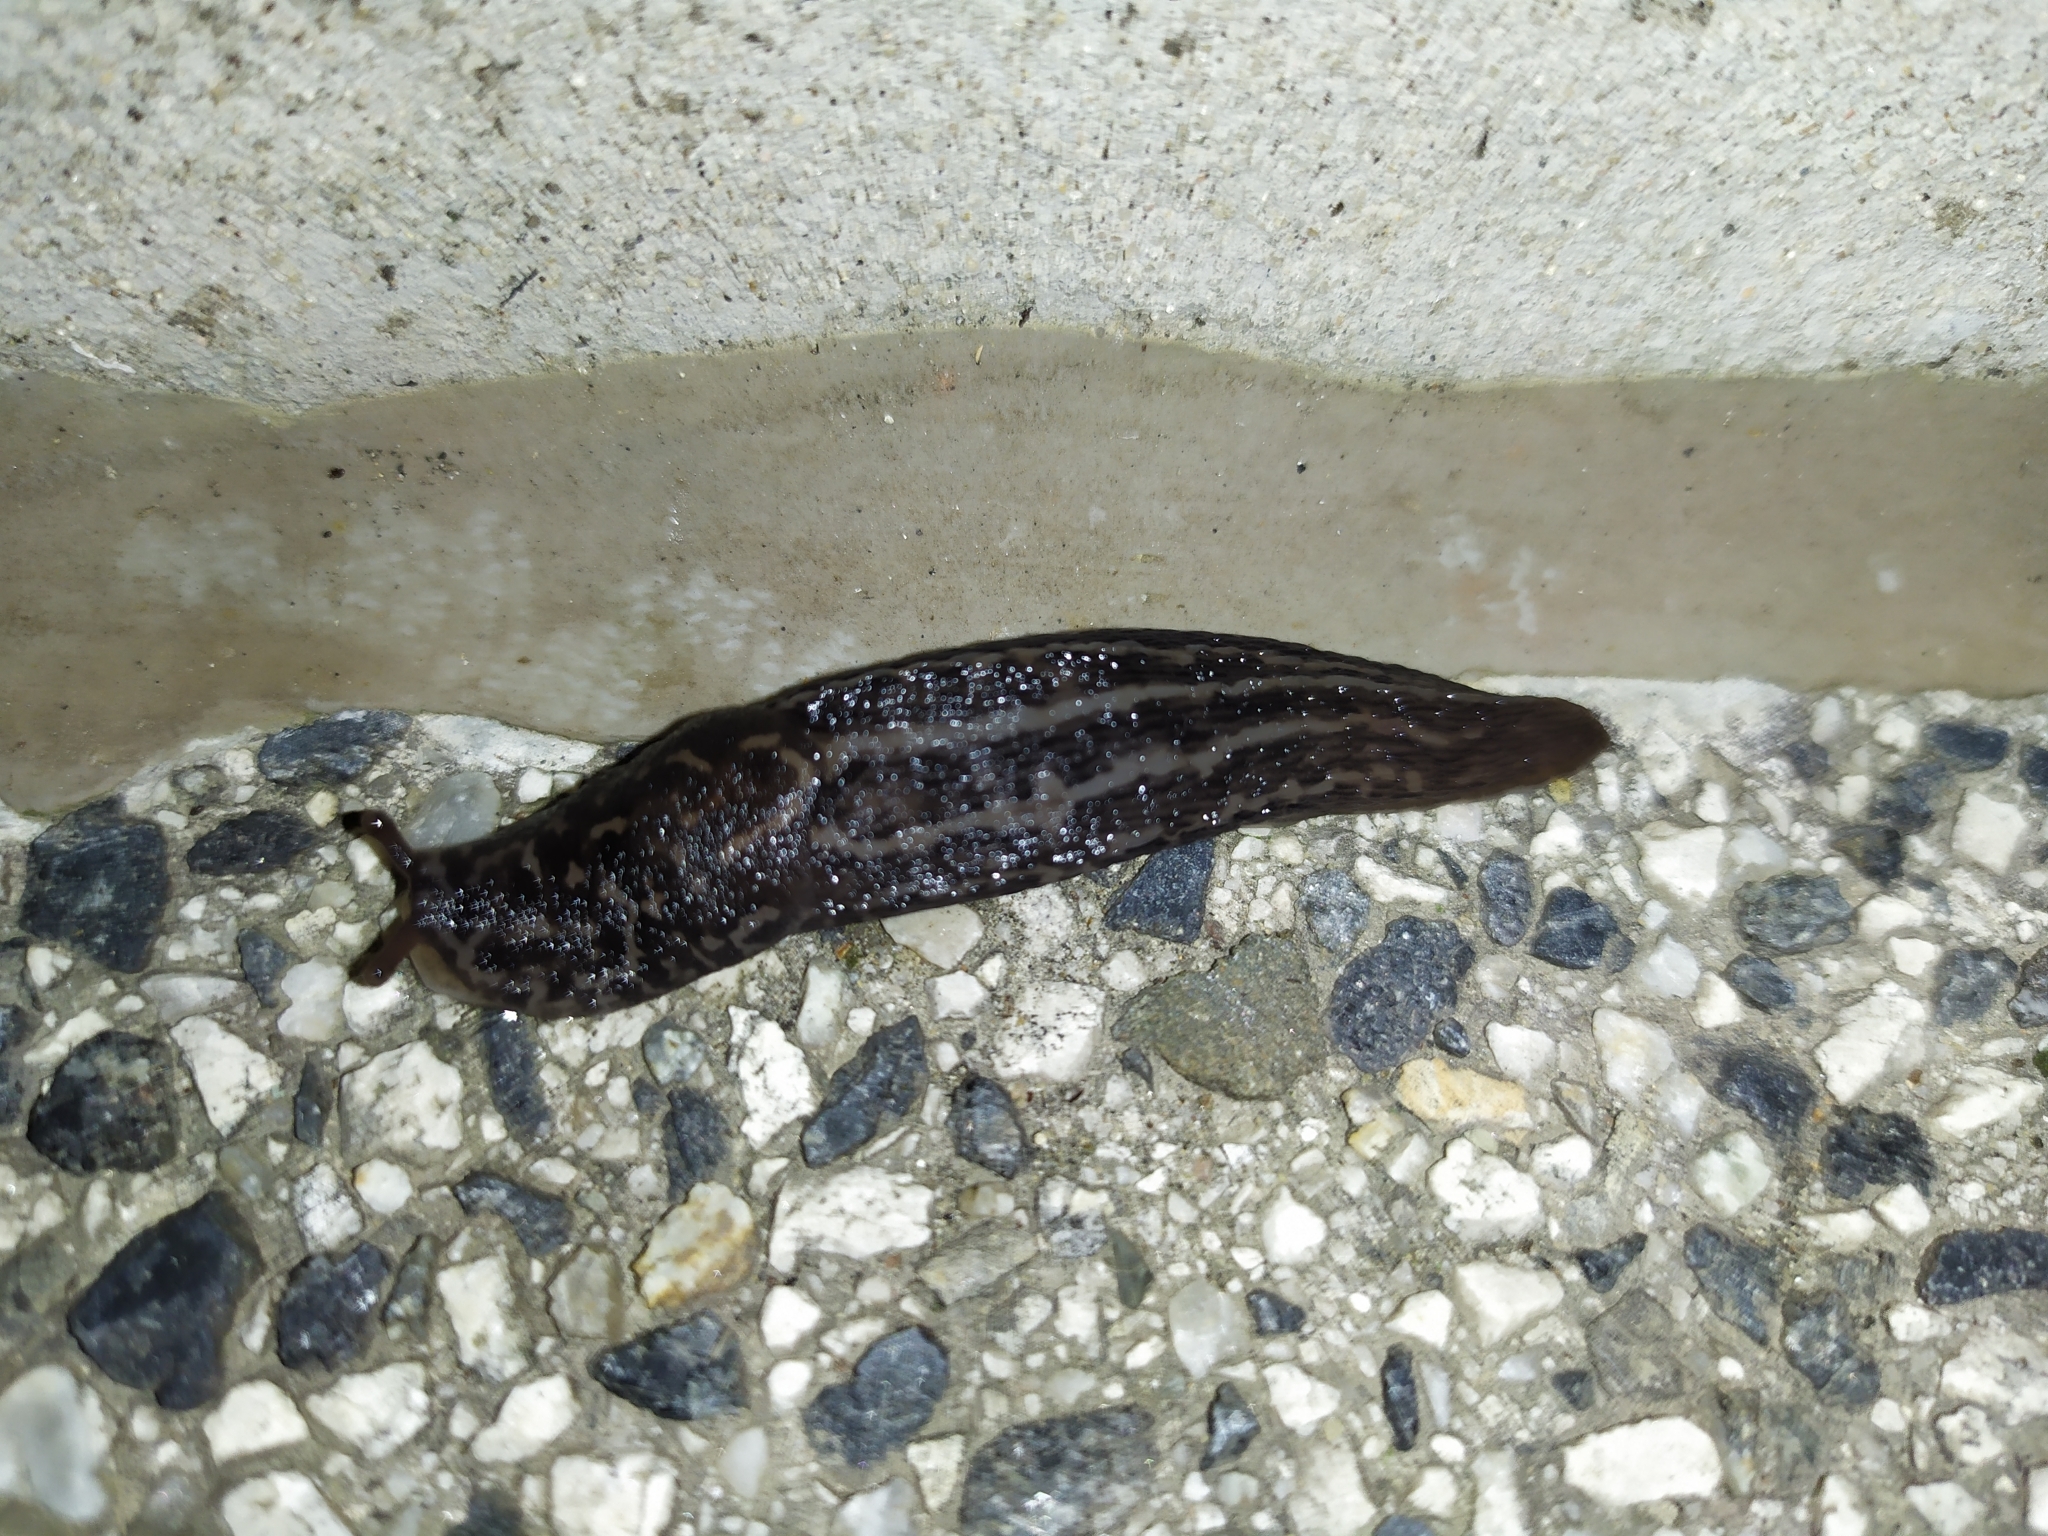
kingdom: Animalia
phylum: Mollusca
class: Gastropoda
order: Stylommatophora
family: Limacidae
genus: Limax
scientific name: Limax maximus
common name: Great grey slug
